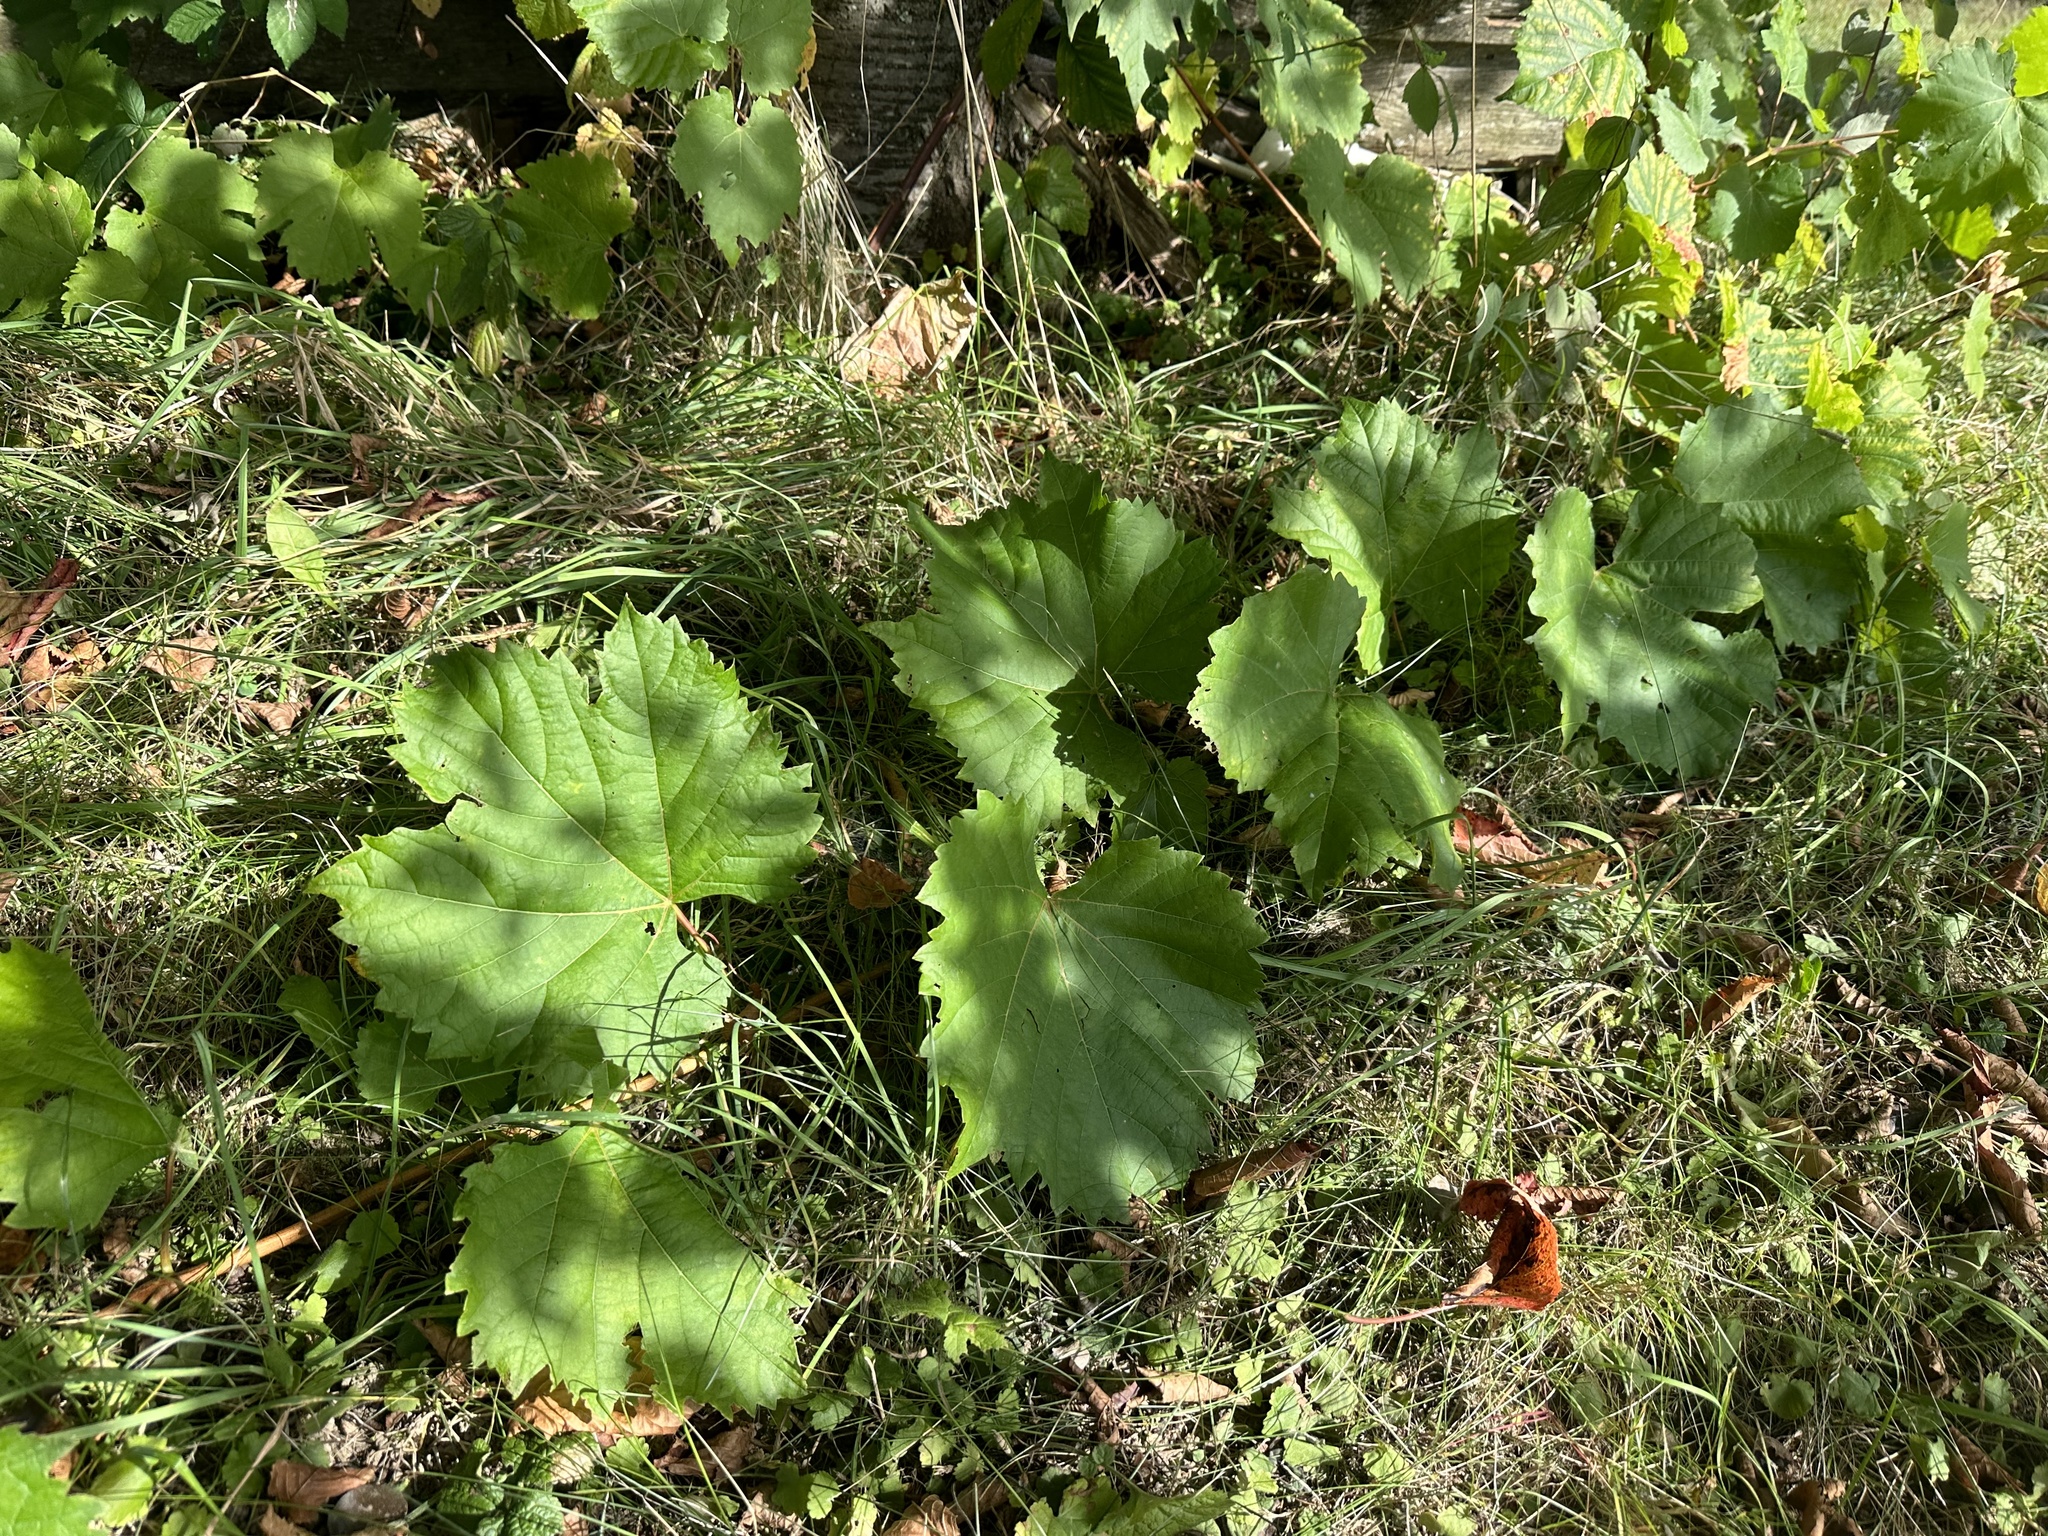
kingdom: Plantae
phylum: Tracheophyta
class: Magnoliopsida
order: Vitales
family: Vitaceae
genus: Vitis
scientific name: Vitis vinifera
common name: Grape-vine
